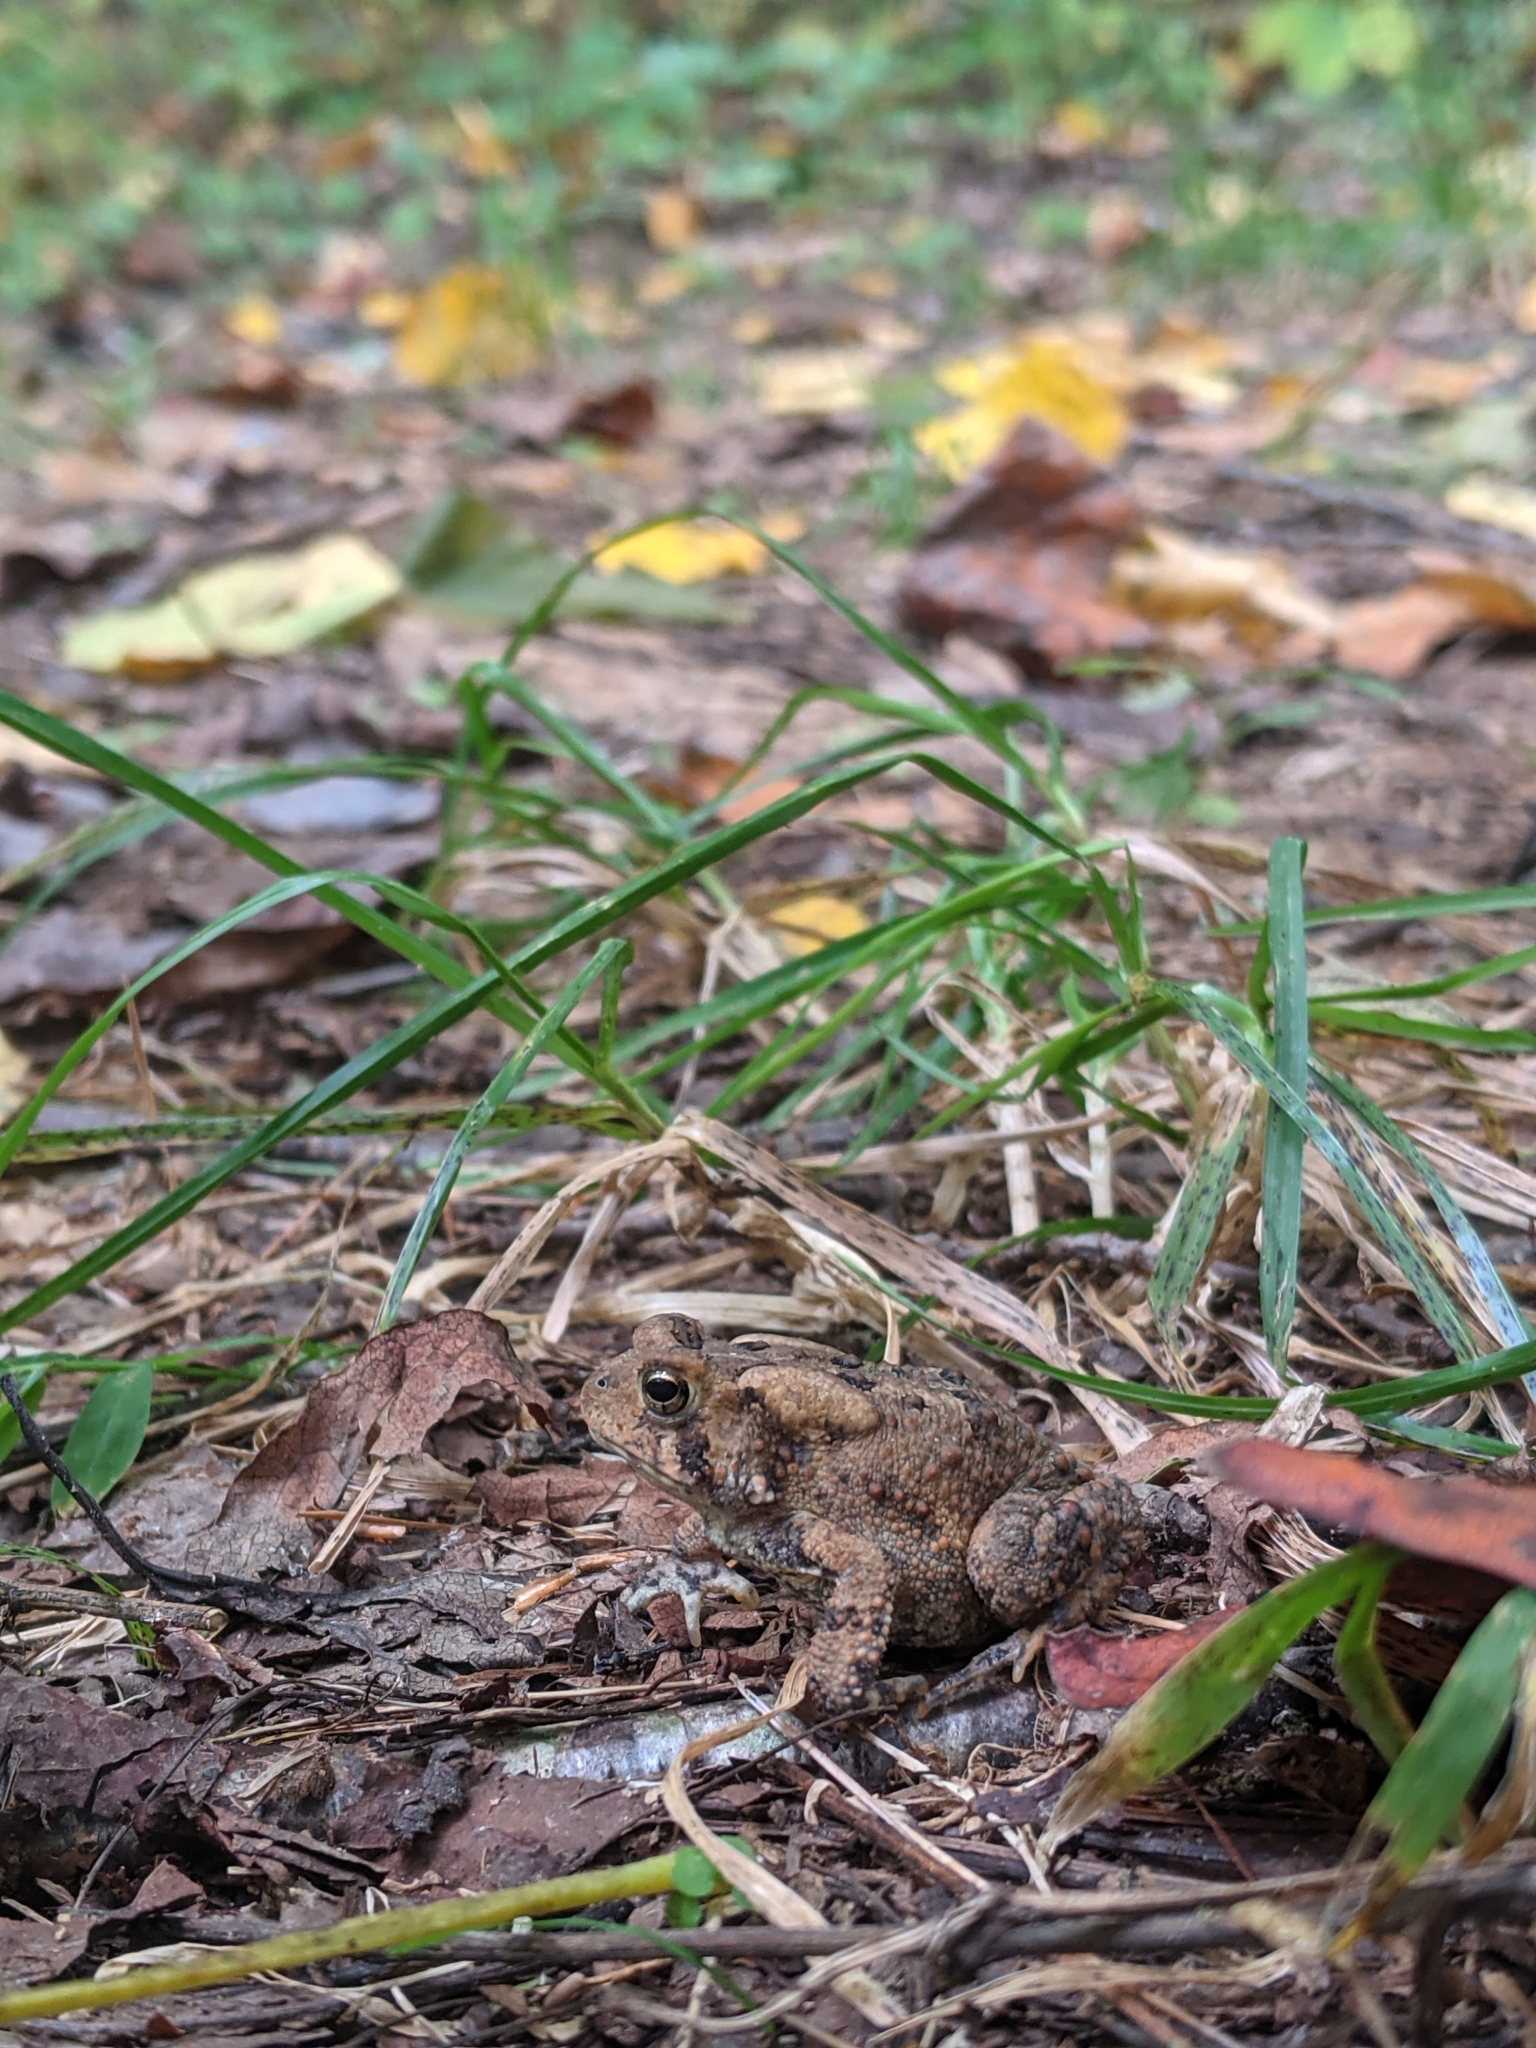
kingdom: Animalia
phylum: Chordata
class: Amphibia
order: Anura
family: Bufonidae
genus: Anaxyrus
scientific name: Anaxyrus americanus
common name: American toad
